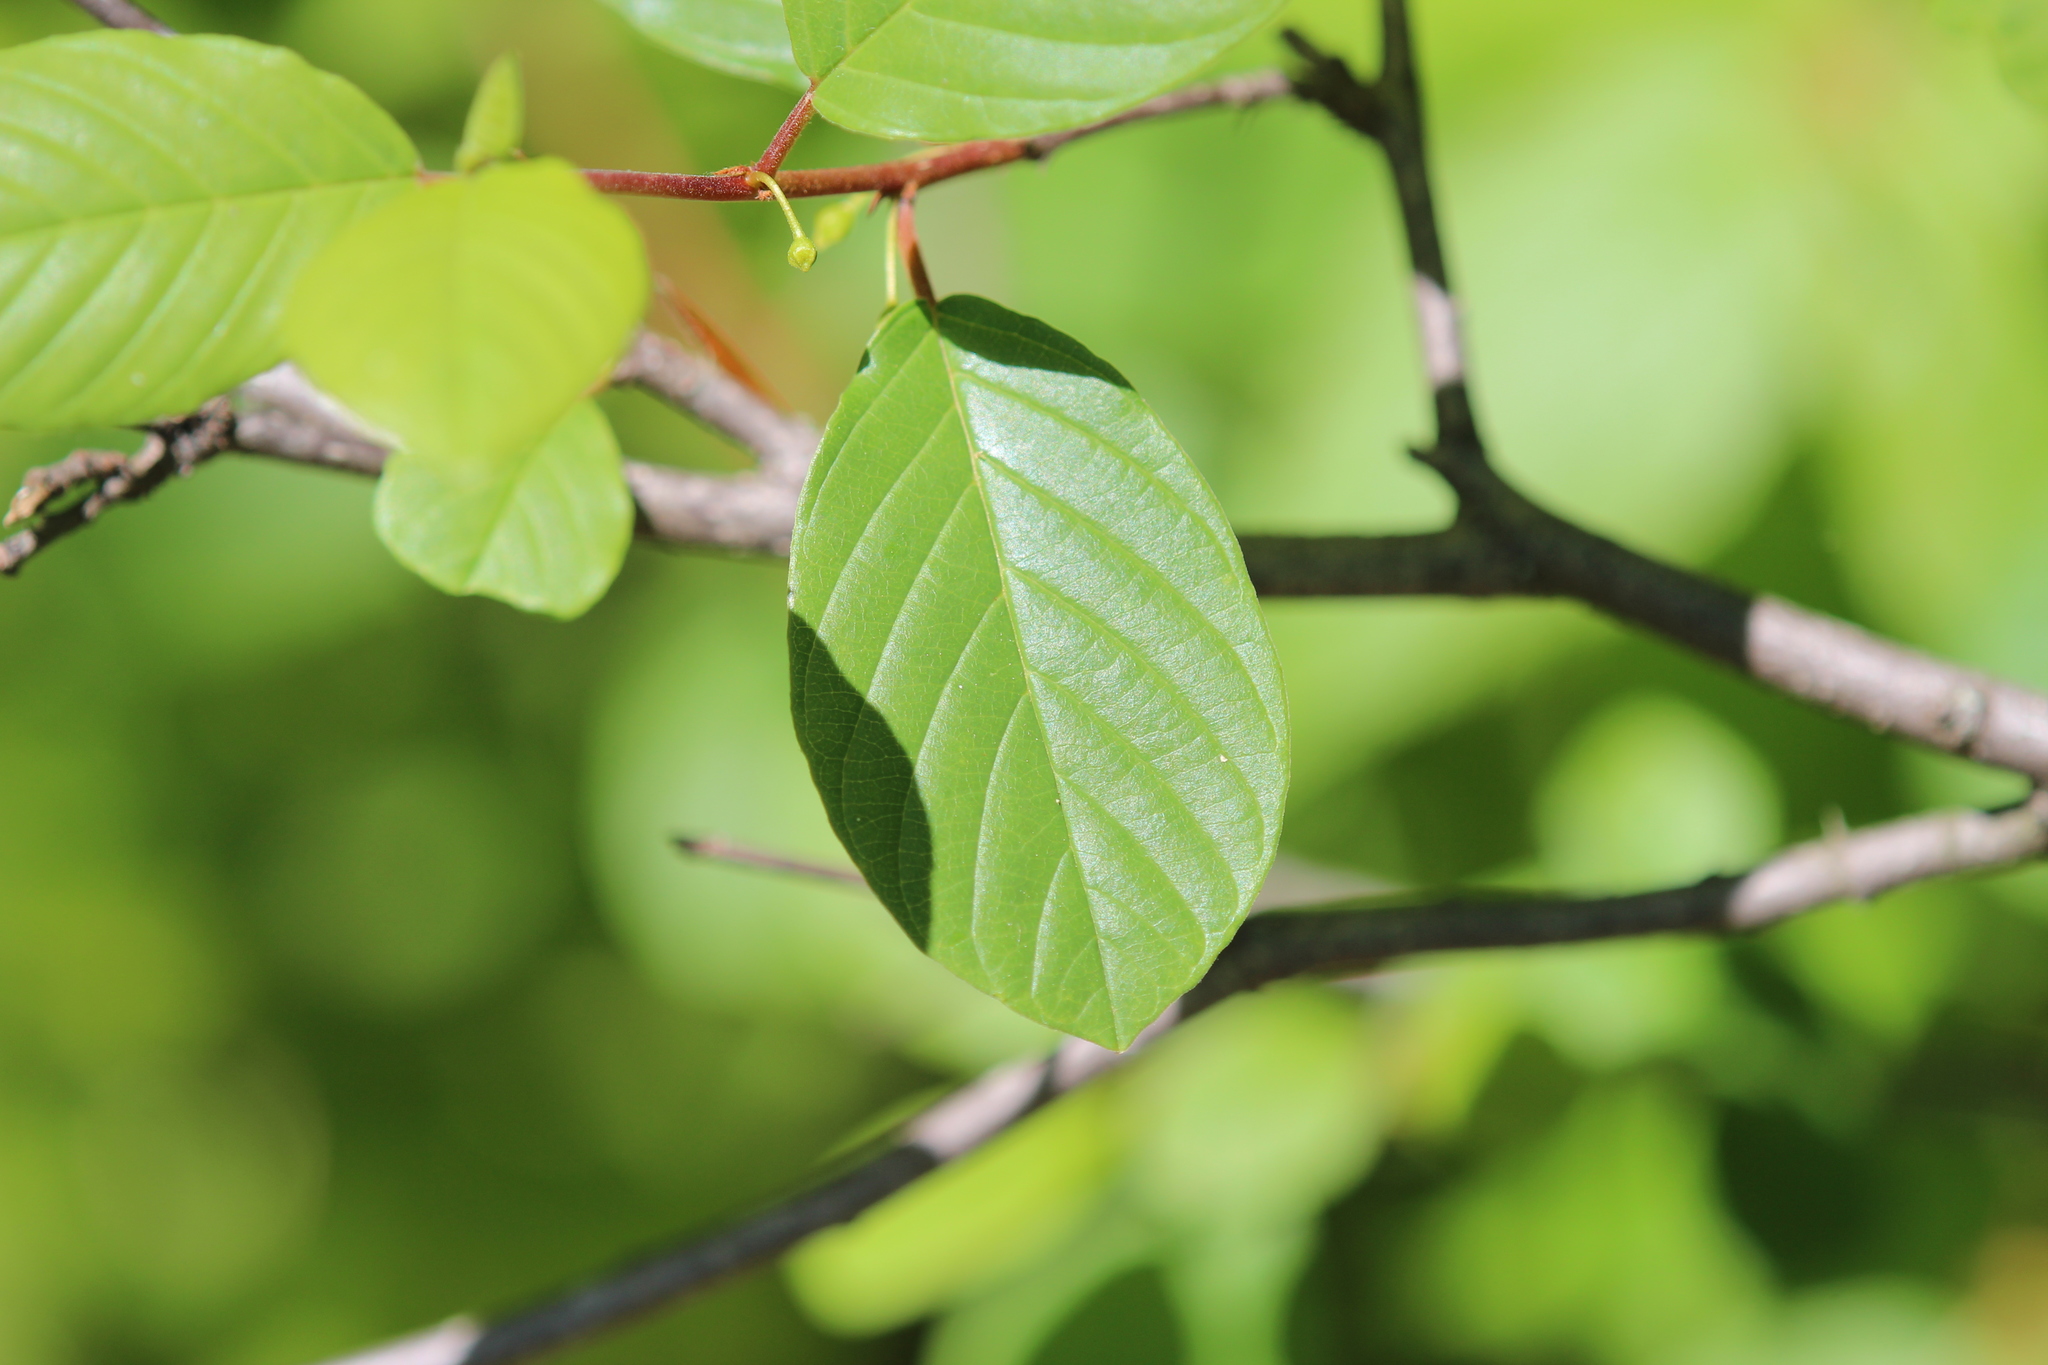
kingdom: Plantae
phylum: Tracheophyta
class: Magnoliopsida
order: Rosales
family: Rhamnaceae
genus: Frangula
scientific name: Frangula alnus
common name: Alder buckthorn
